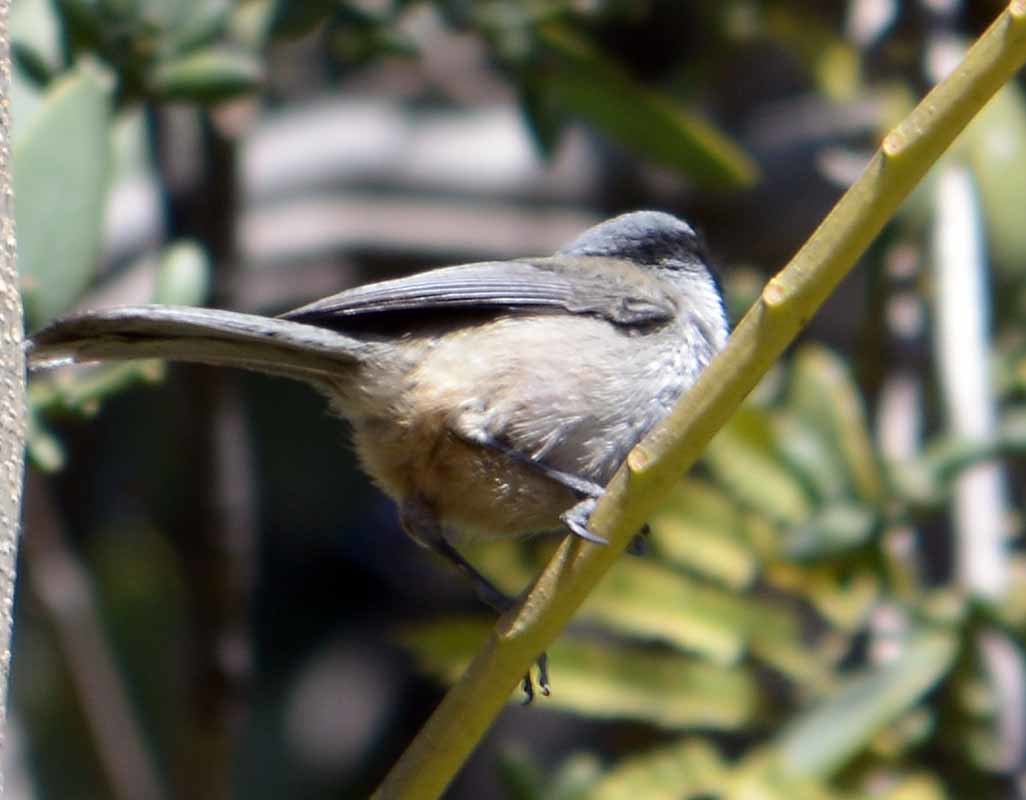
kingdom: Animalia
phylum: Chordata
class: Aves
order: Passeriformes
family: Aegithalidae
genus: Psaltriparus
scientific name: Psaltriparus minimus
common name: American bushtit
